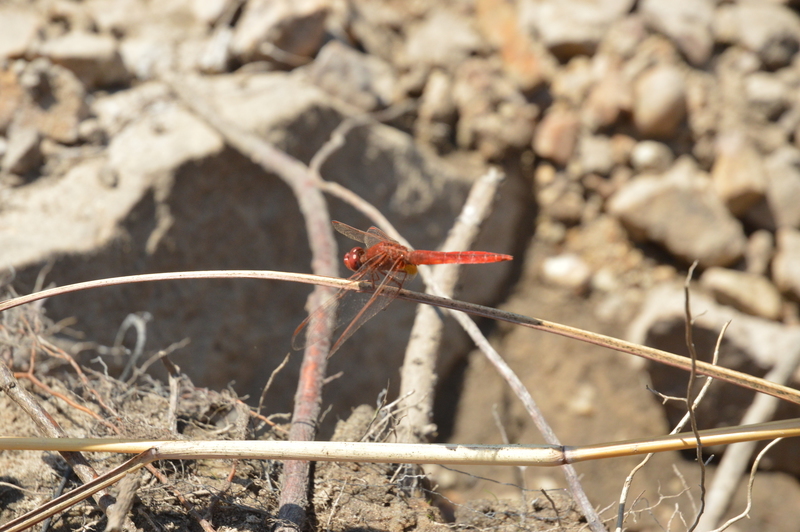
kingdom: Animalia
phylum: Arthropoda
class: Insecta
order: Odonata
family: Libellulidae
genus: Crocothemis
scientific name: Crocothemis erythraea
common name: Scarlet dragonfly
